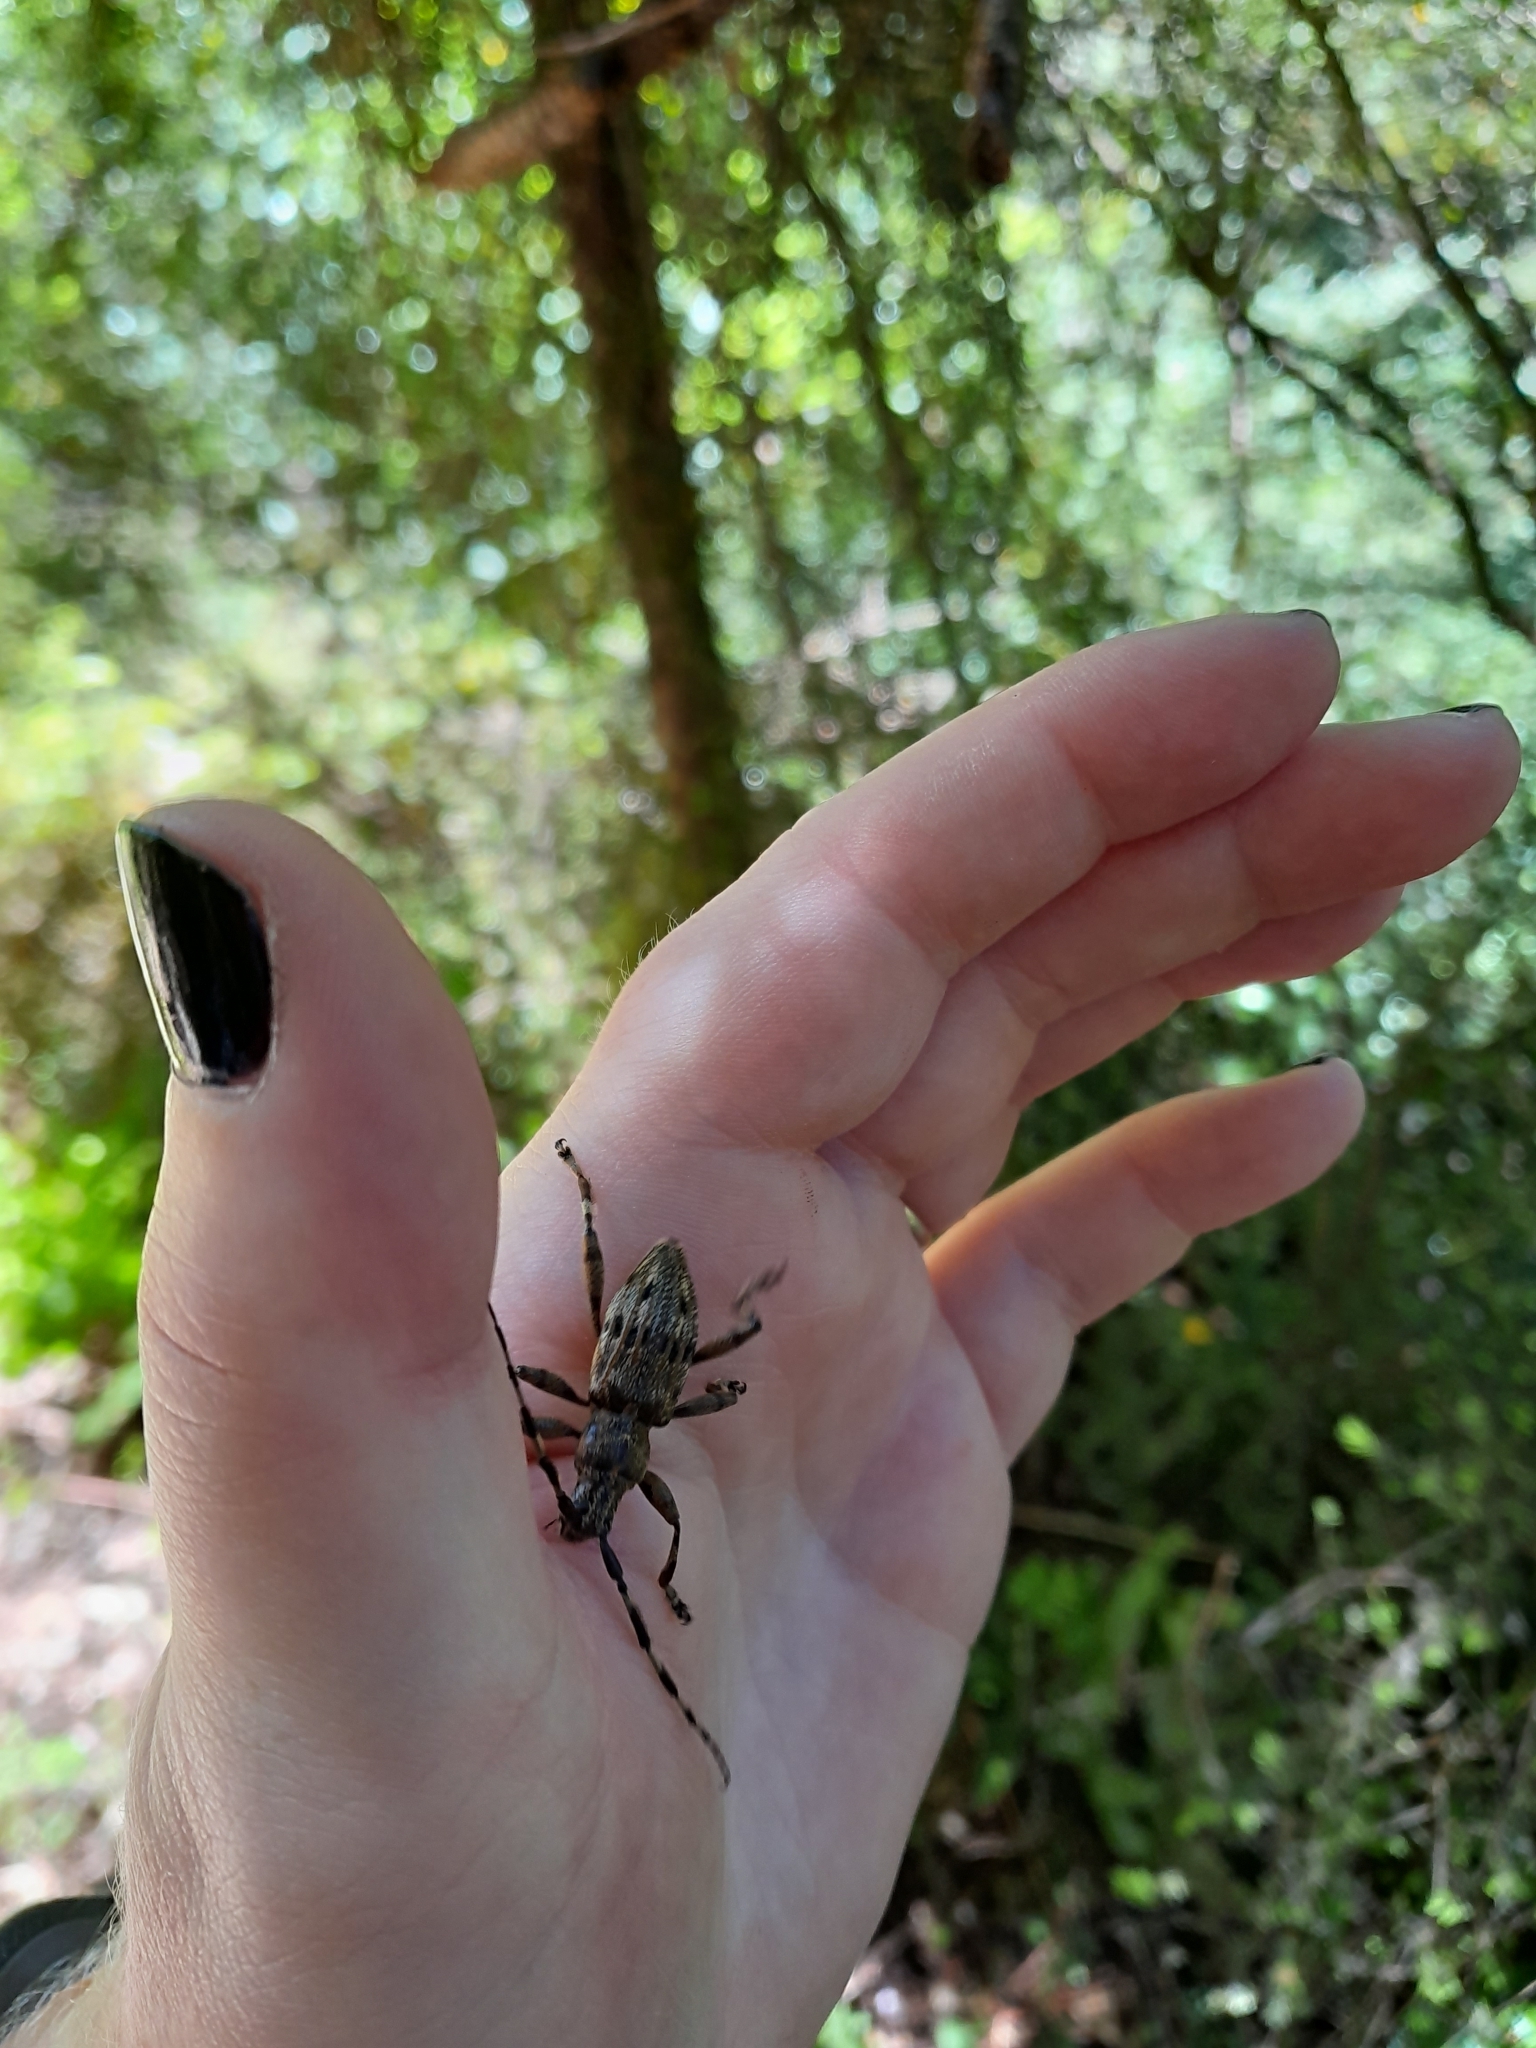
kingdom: Animalia
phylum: Arthropoda
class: Insecta
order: Coleoptera
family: Cerambycidae
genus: Hexatricha
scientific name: Hexatricha pulverulenta
